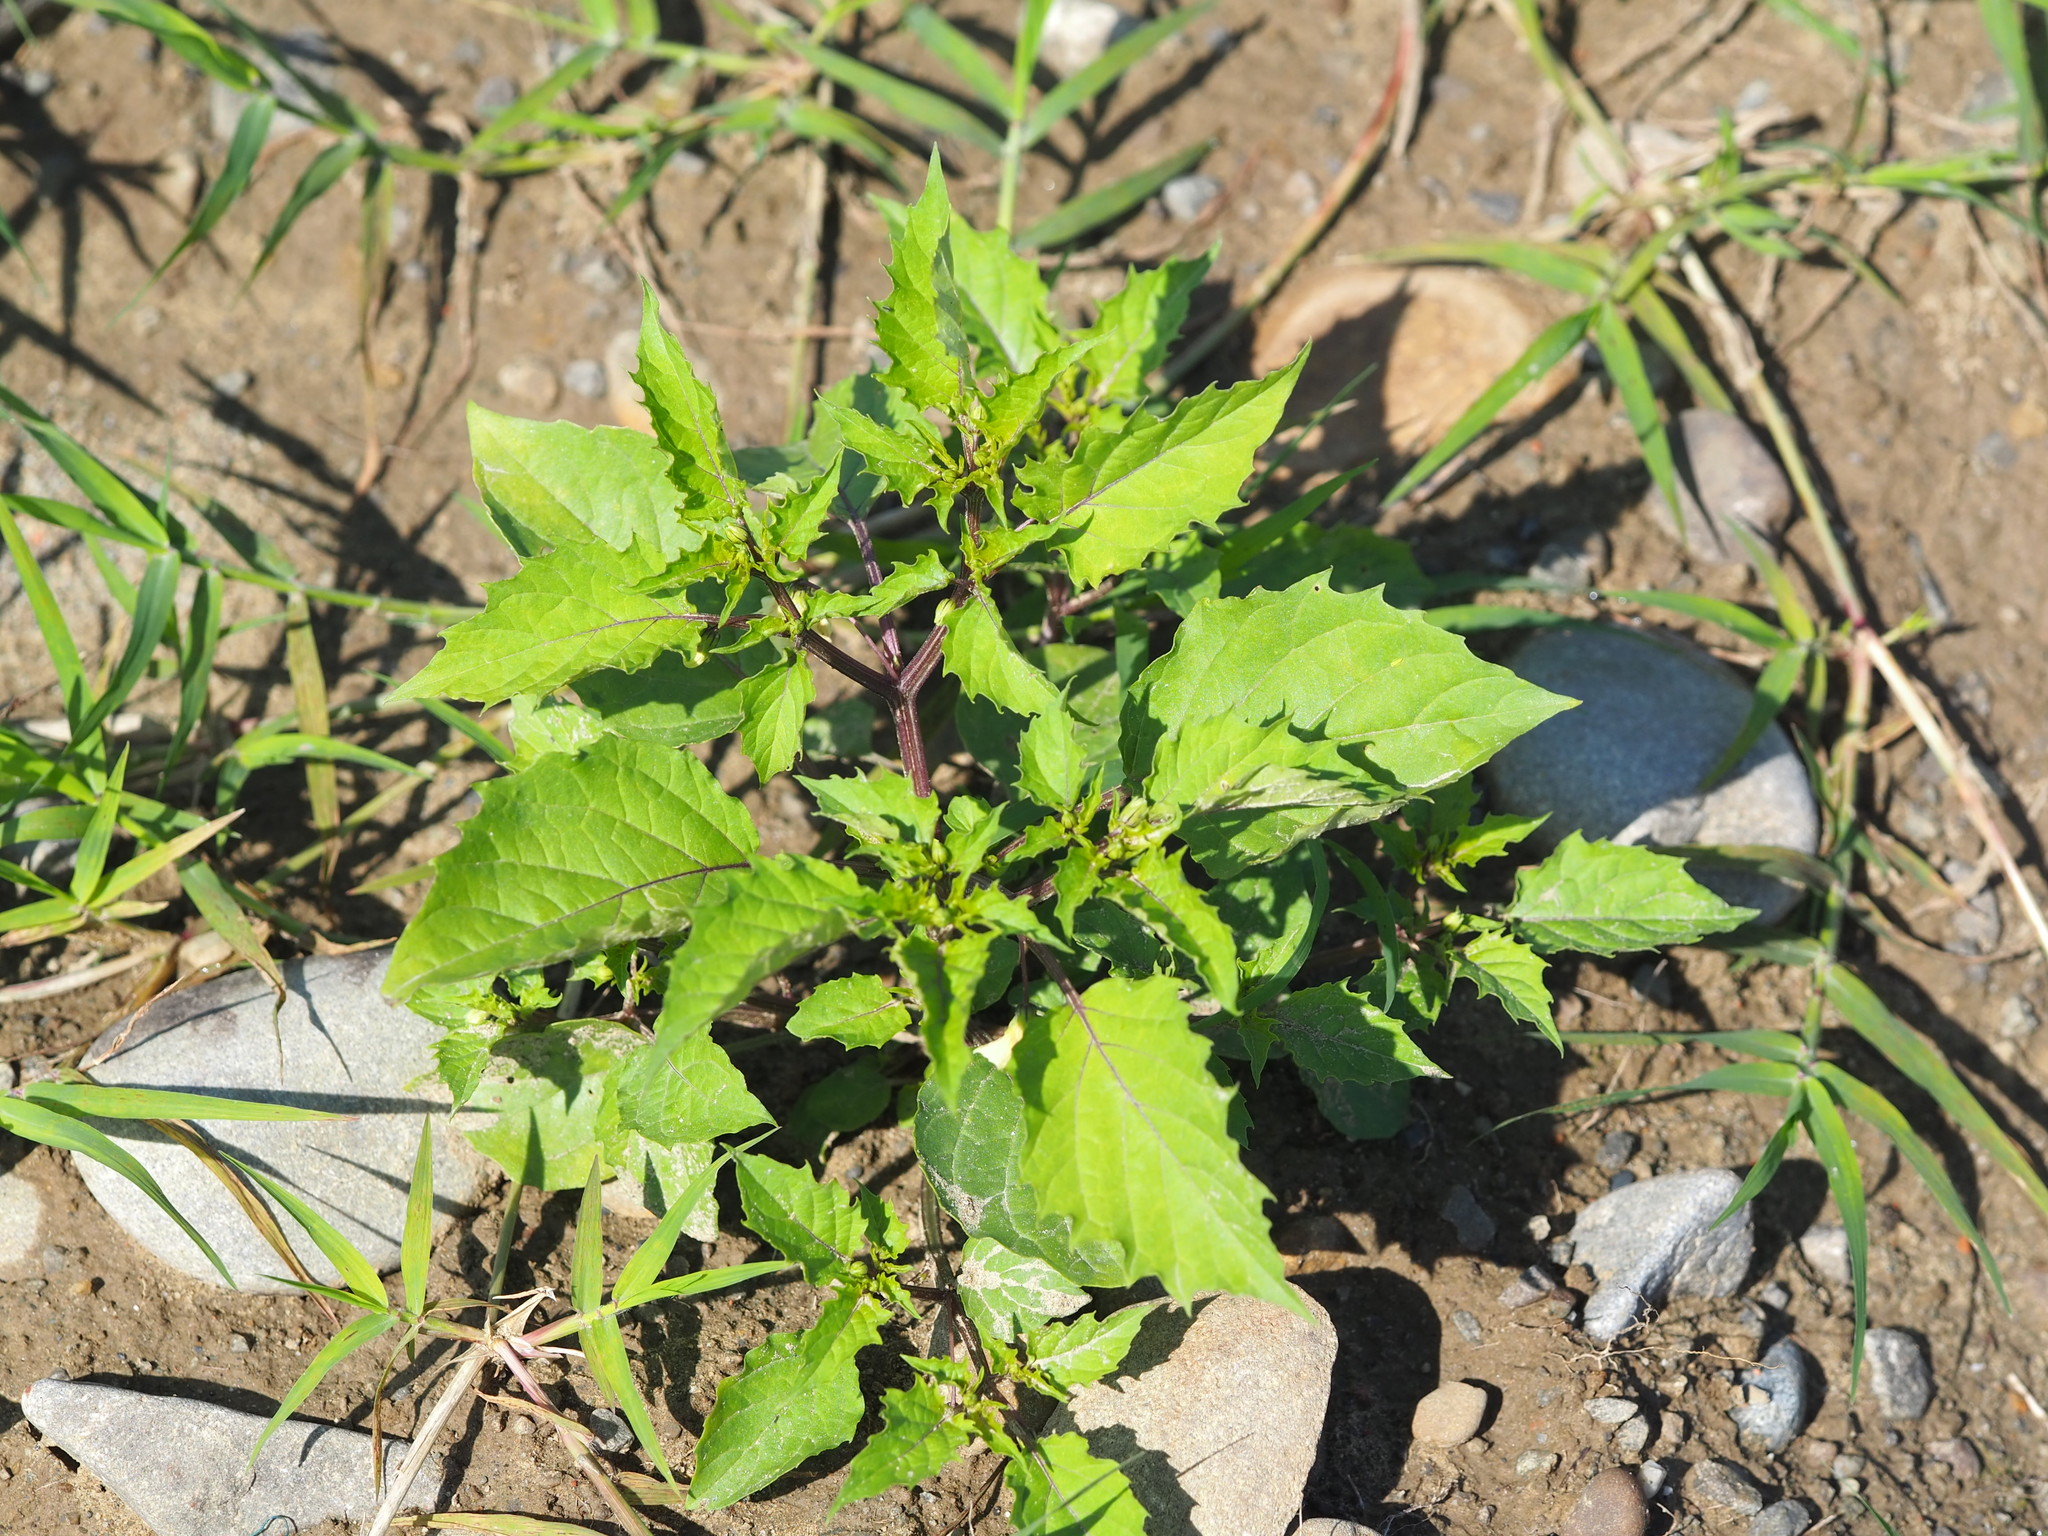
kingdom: Plantae
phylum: Tracheophyta
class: Magnoliopsida
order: Solanales
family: Solanaceae
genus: Physalis
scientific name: Physalis angulata
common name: Angular winter-cherry
